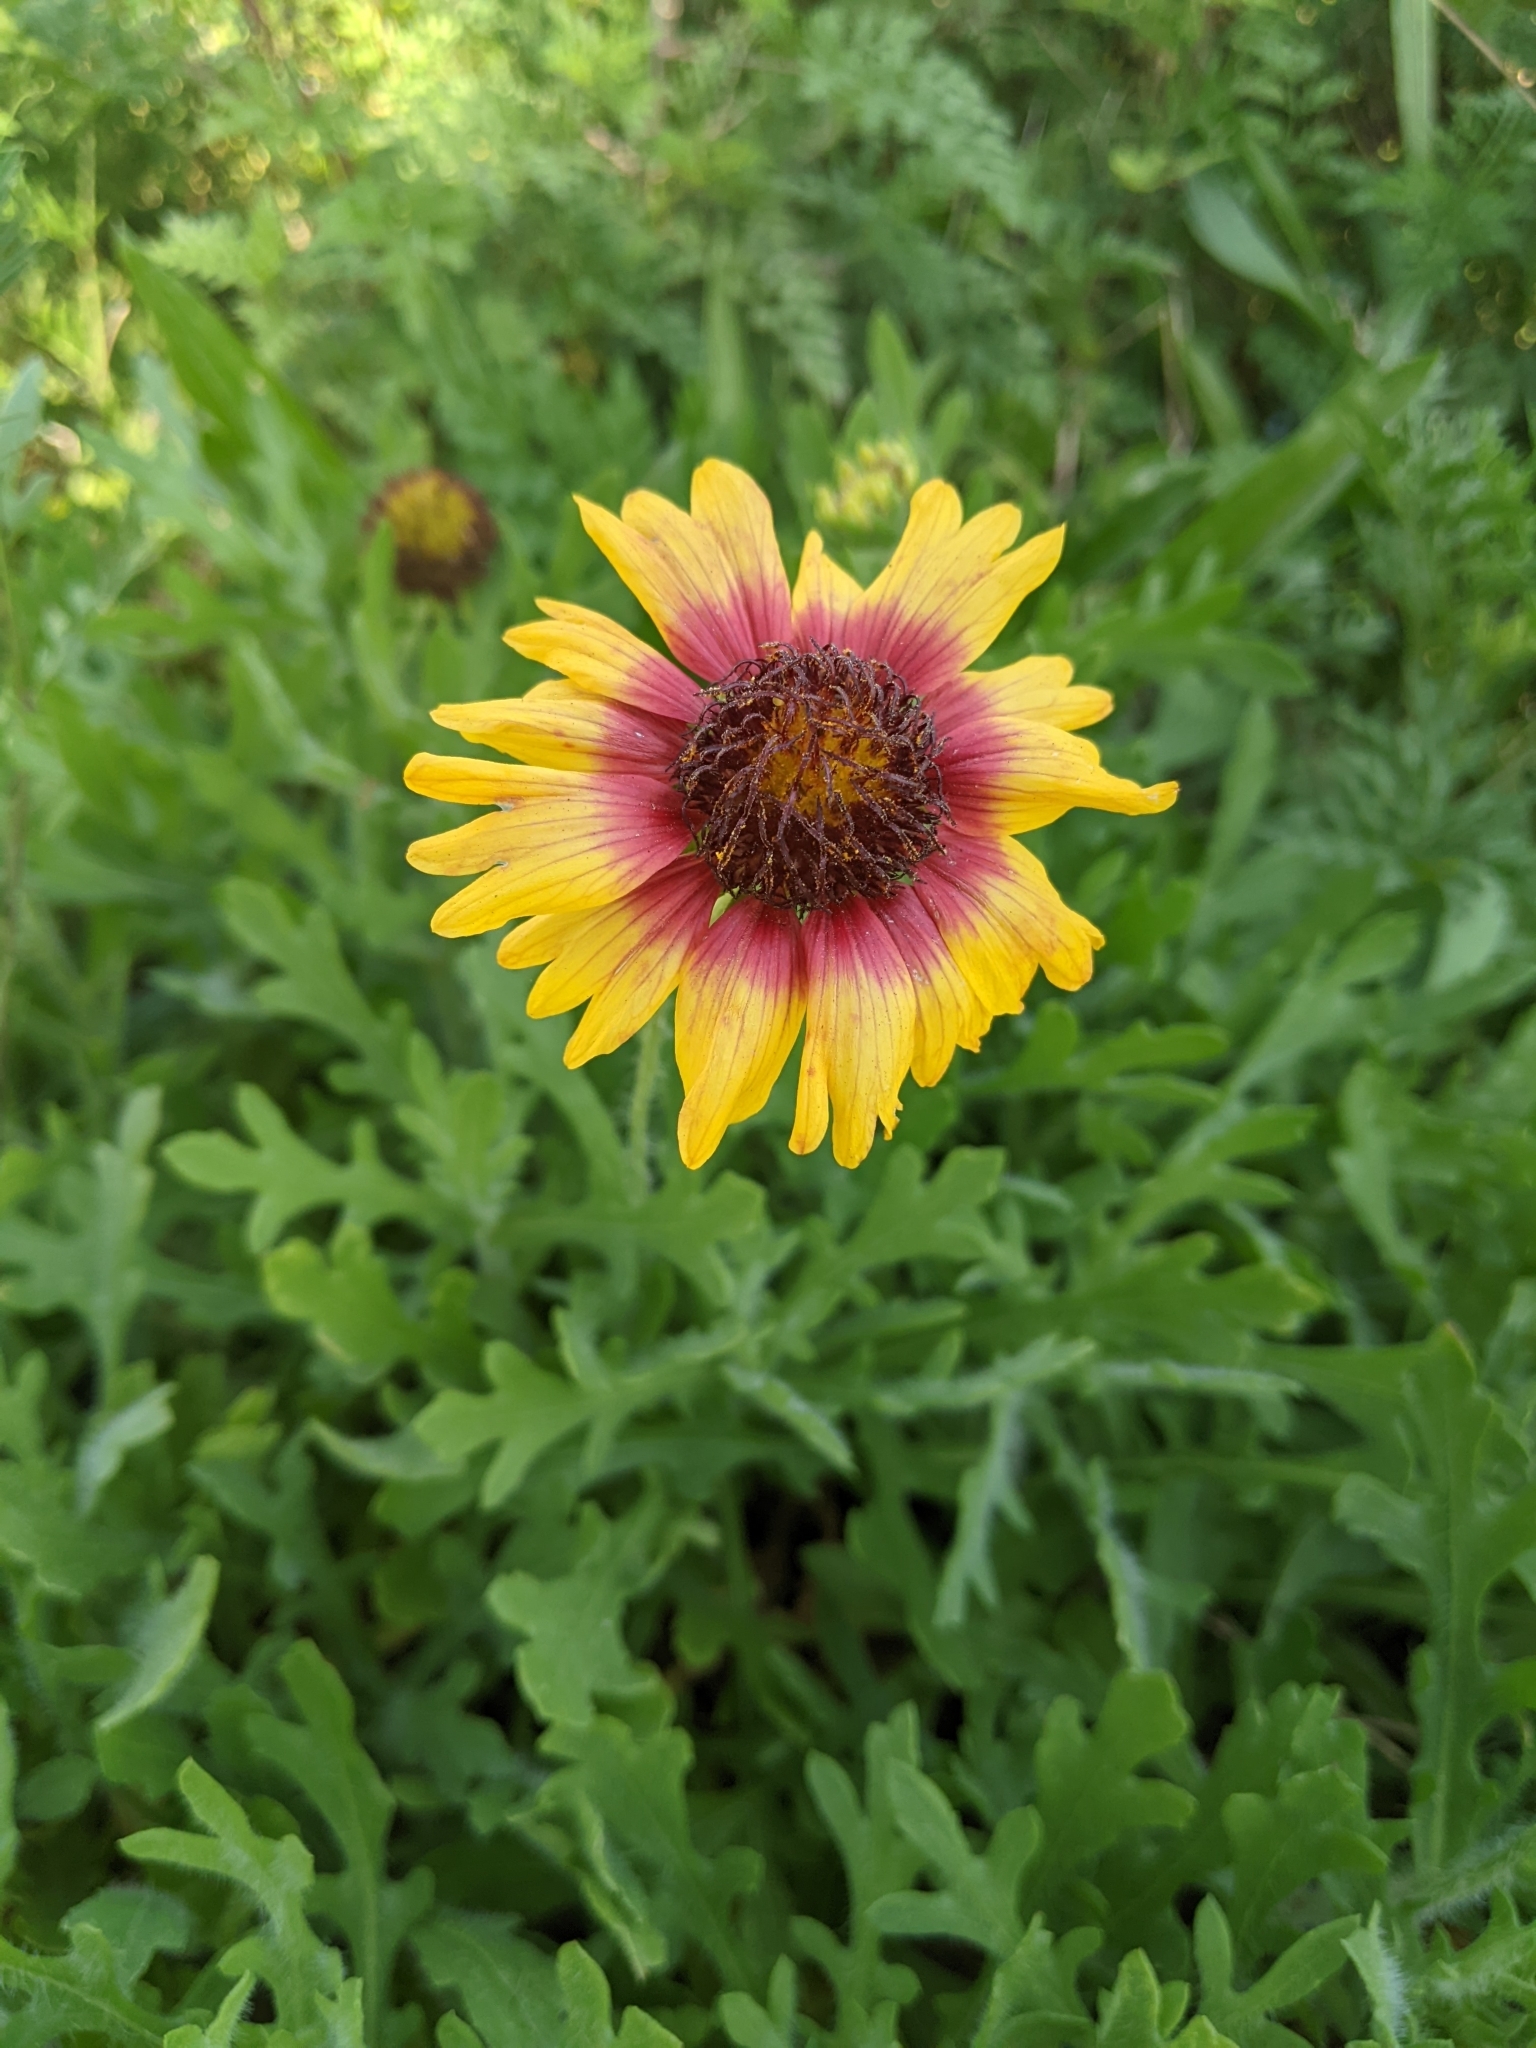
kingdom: Plantae
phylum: Tracheophyta
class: Magnoliopsida
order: Asterales
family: Asteraceae
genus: Gaillardia
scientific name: Gaillardia pulchella
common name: Firewheel
